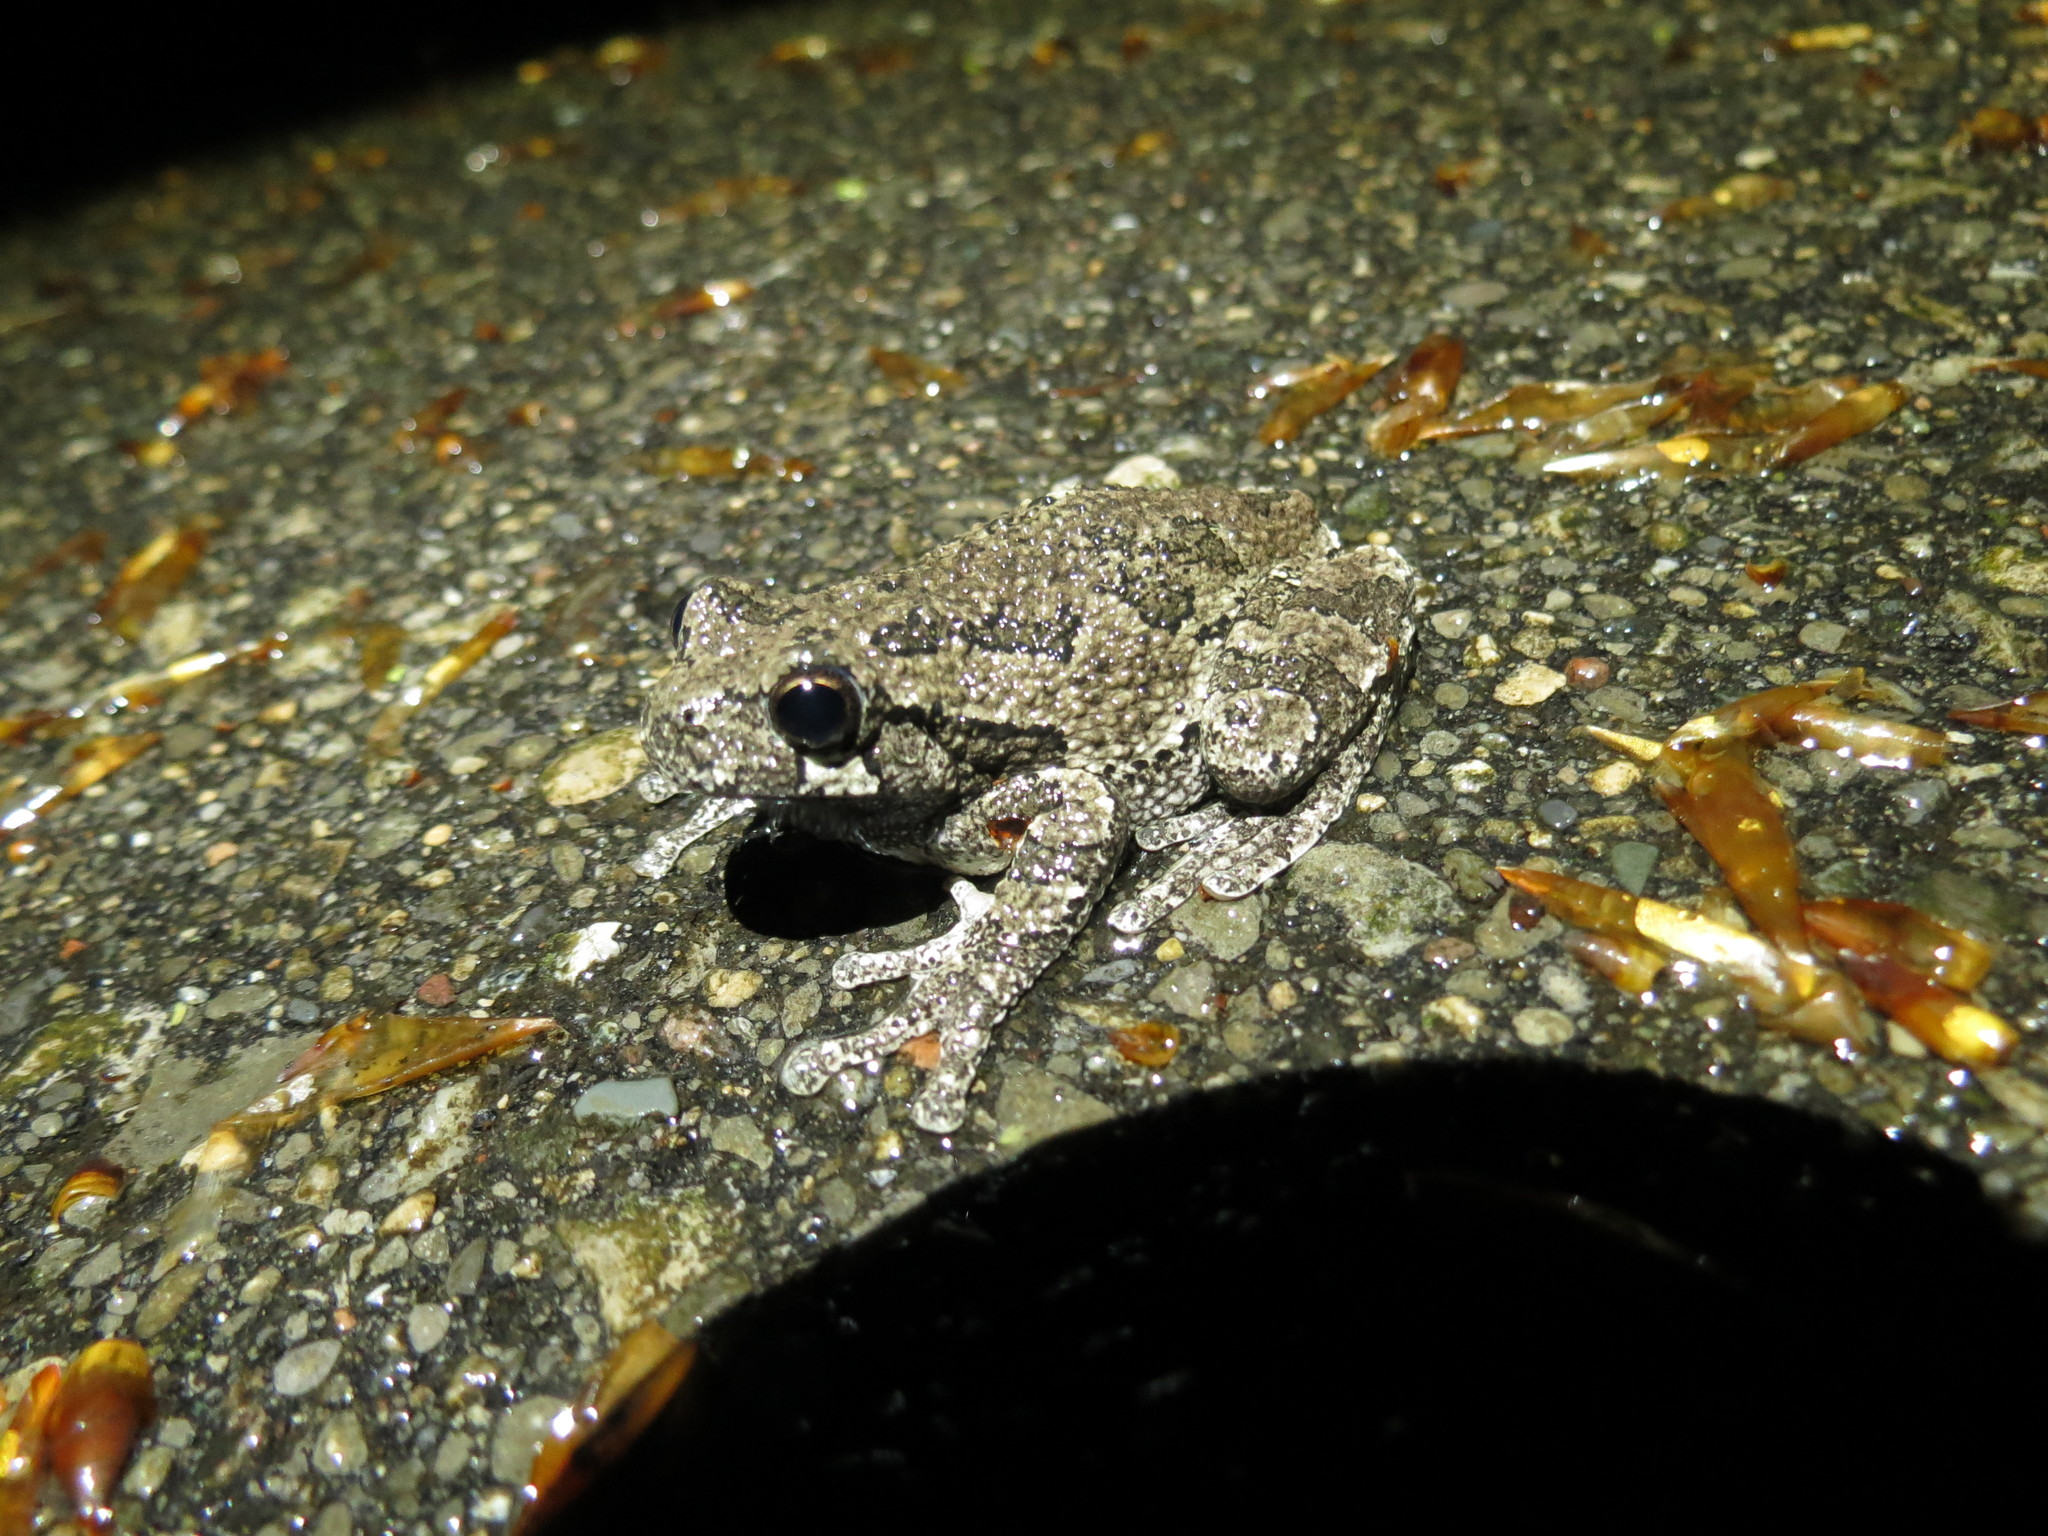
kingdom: Animalia
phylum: Chordata
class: Amphibia
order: Anura
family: Hylidae
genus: Dryophytes
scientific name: Dryophytes versicolor
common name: Gray treefrog
